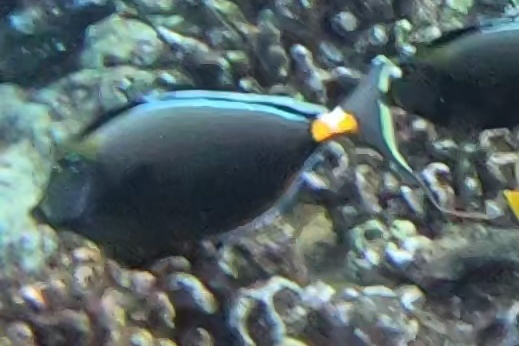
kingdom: Animalia
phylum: Chordata
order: Perciformes
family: Acanthuridae
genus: Naso
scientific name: Naso lituratus
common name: Orangespine unicornfish
